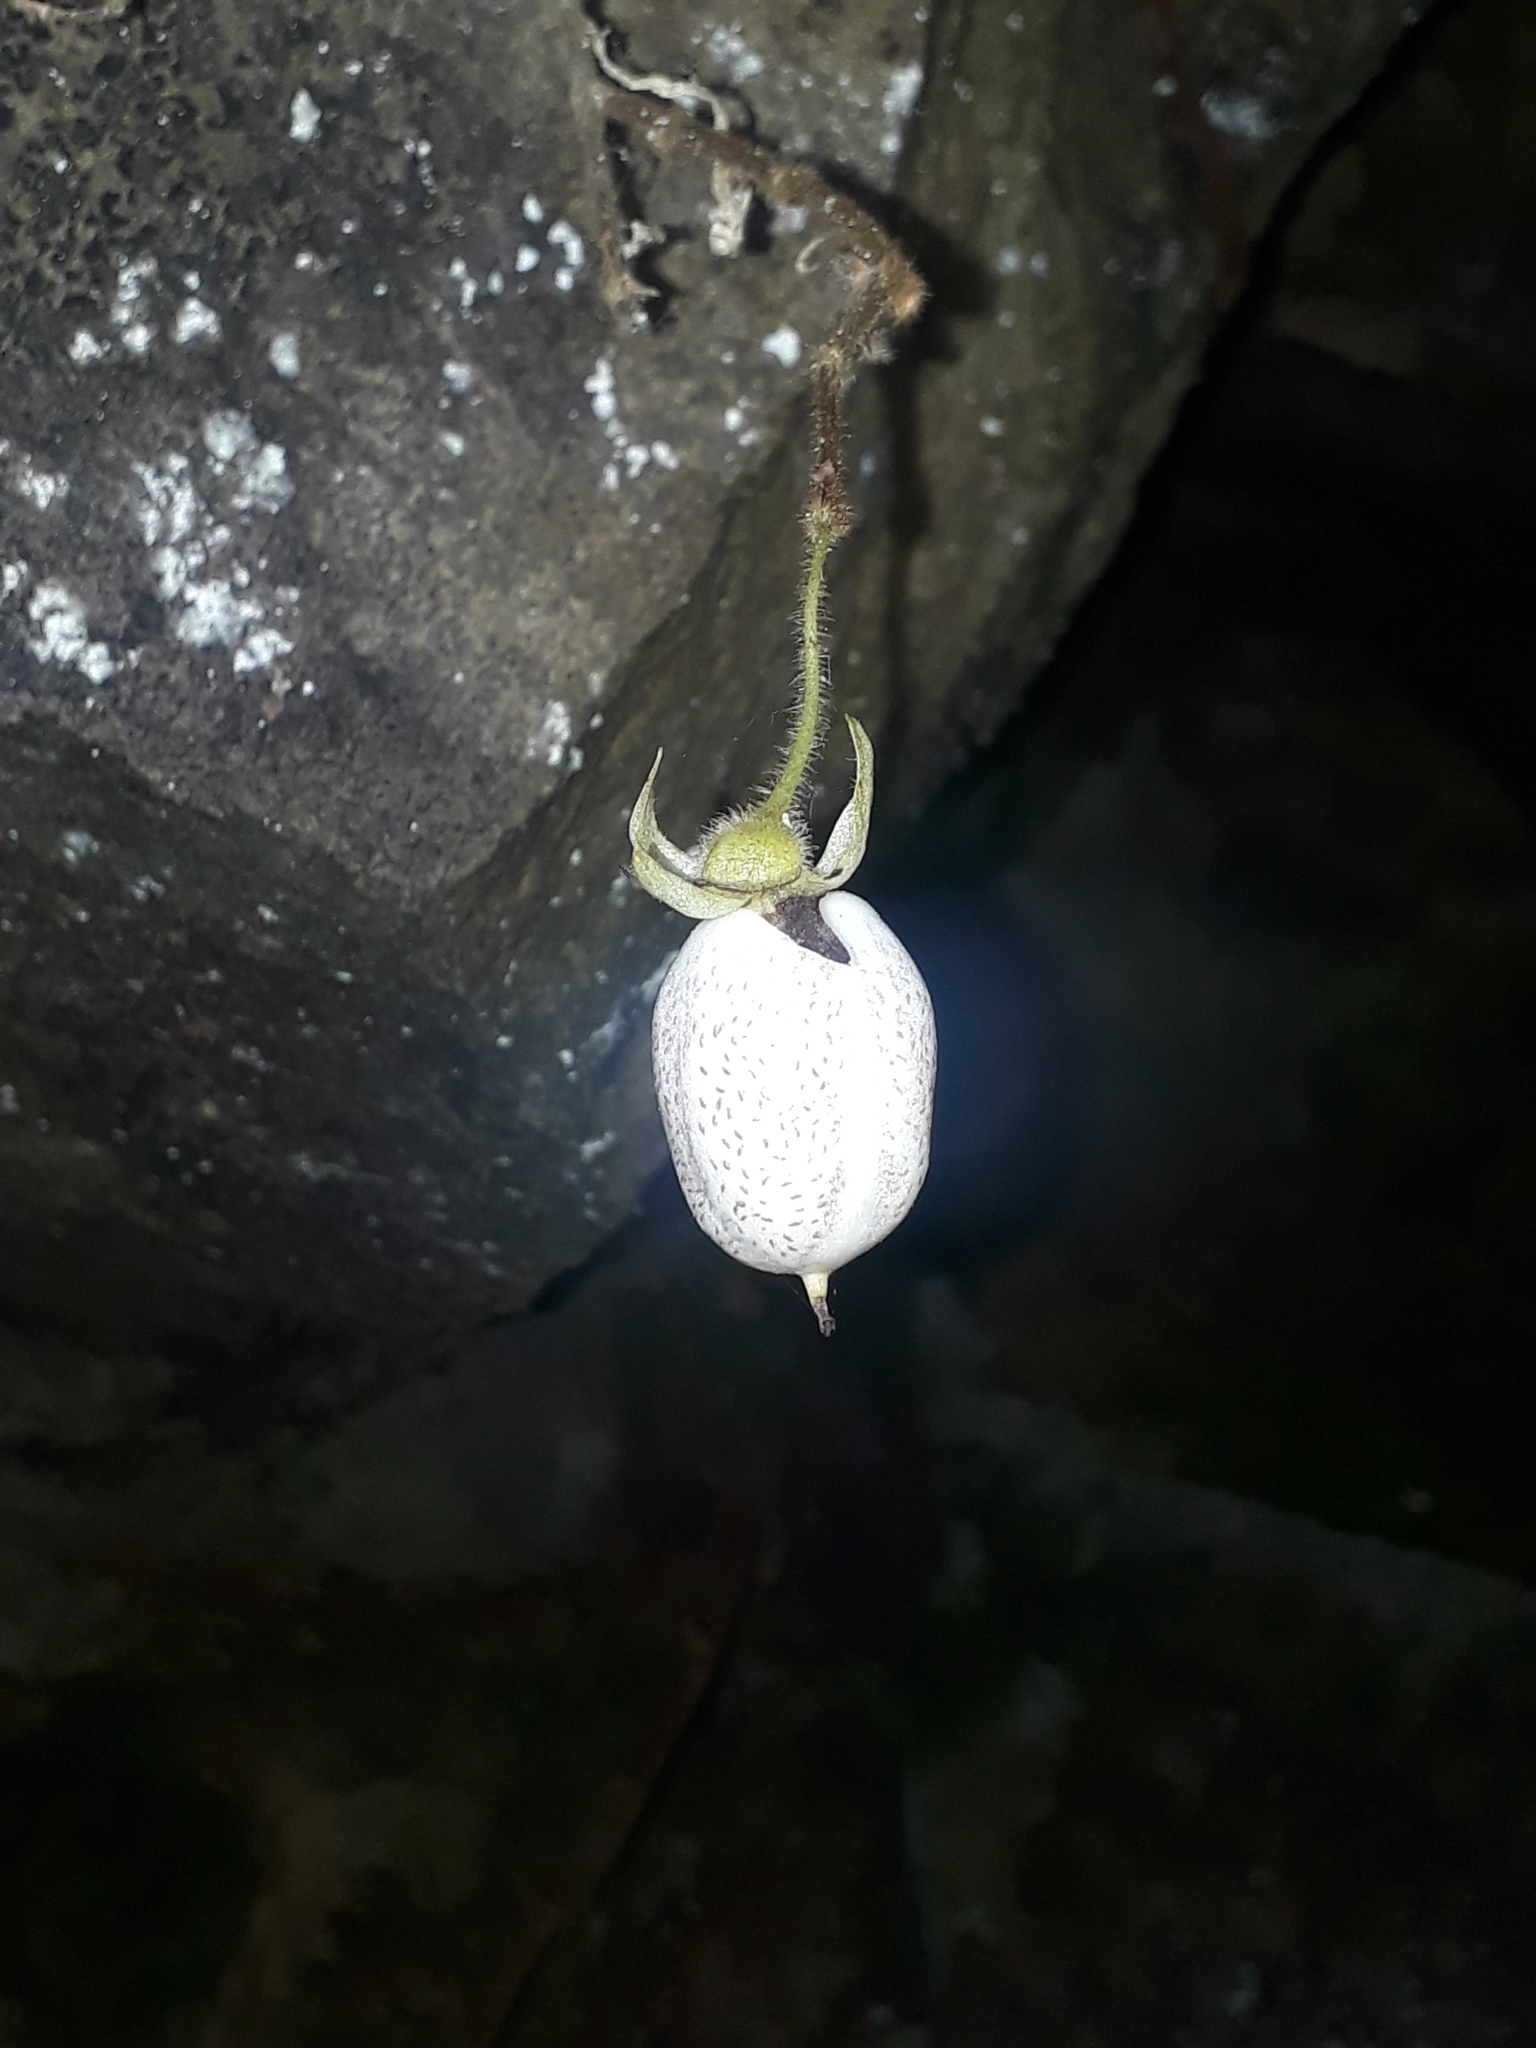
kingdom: Plantae
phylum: Tracheophyta
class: Magnoliopsida
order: Lamiales
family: Gesneriaceae
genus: Fieldia
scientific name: Fieldia australis
